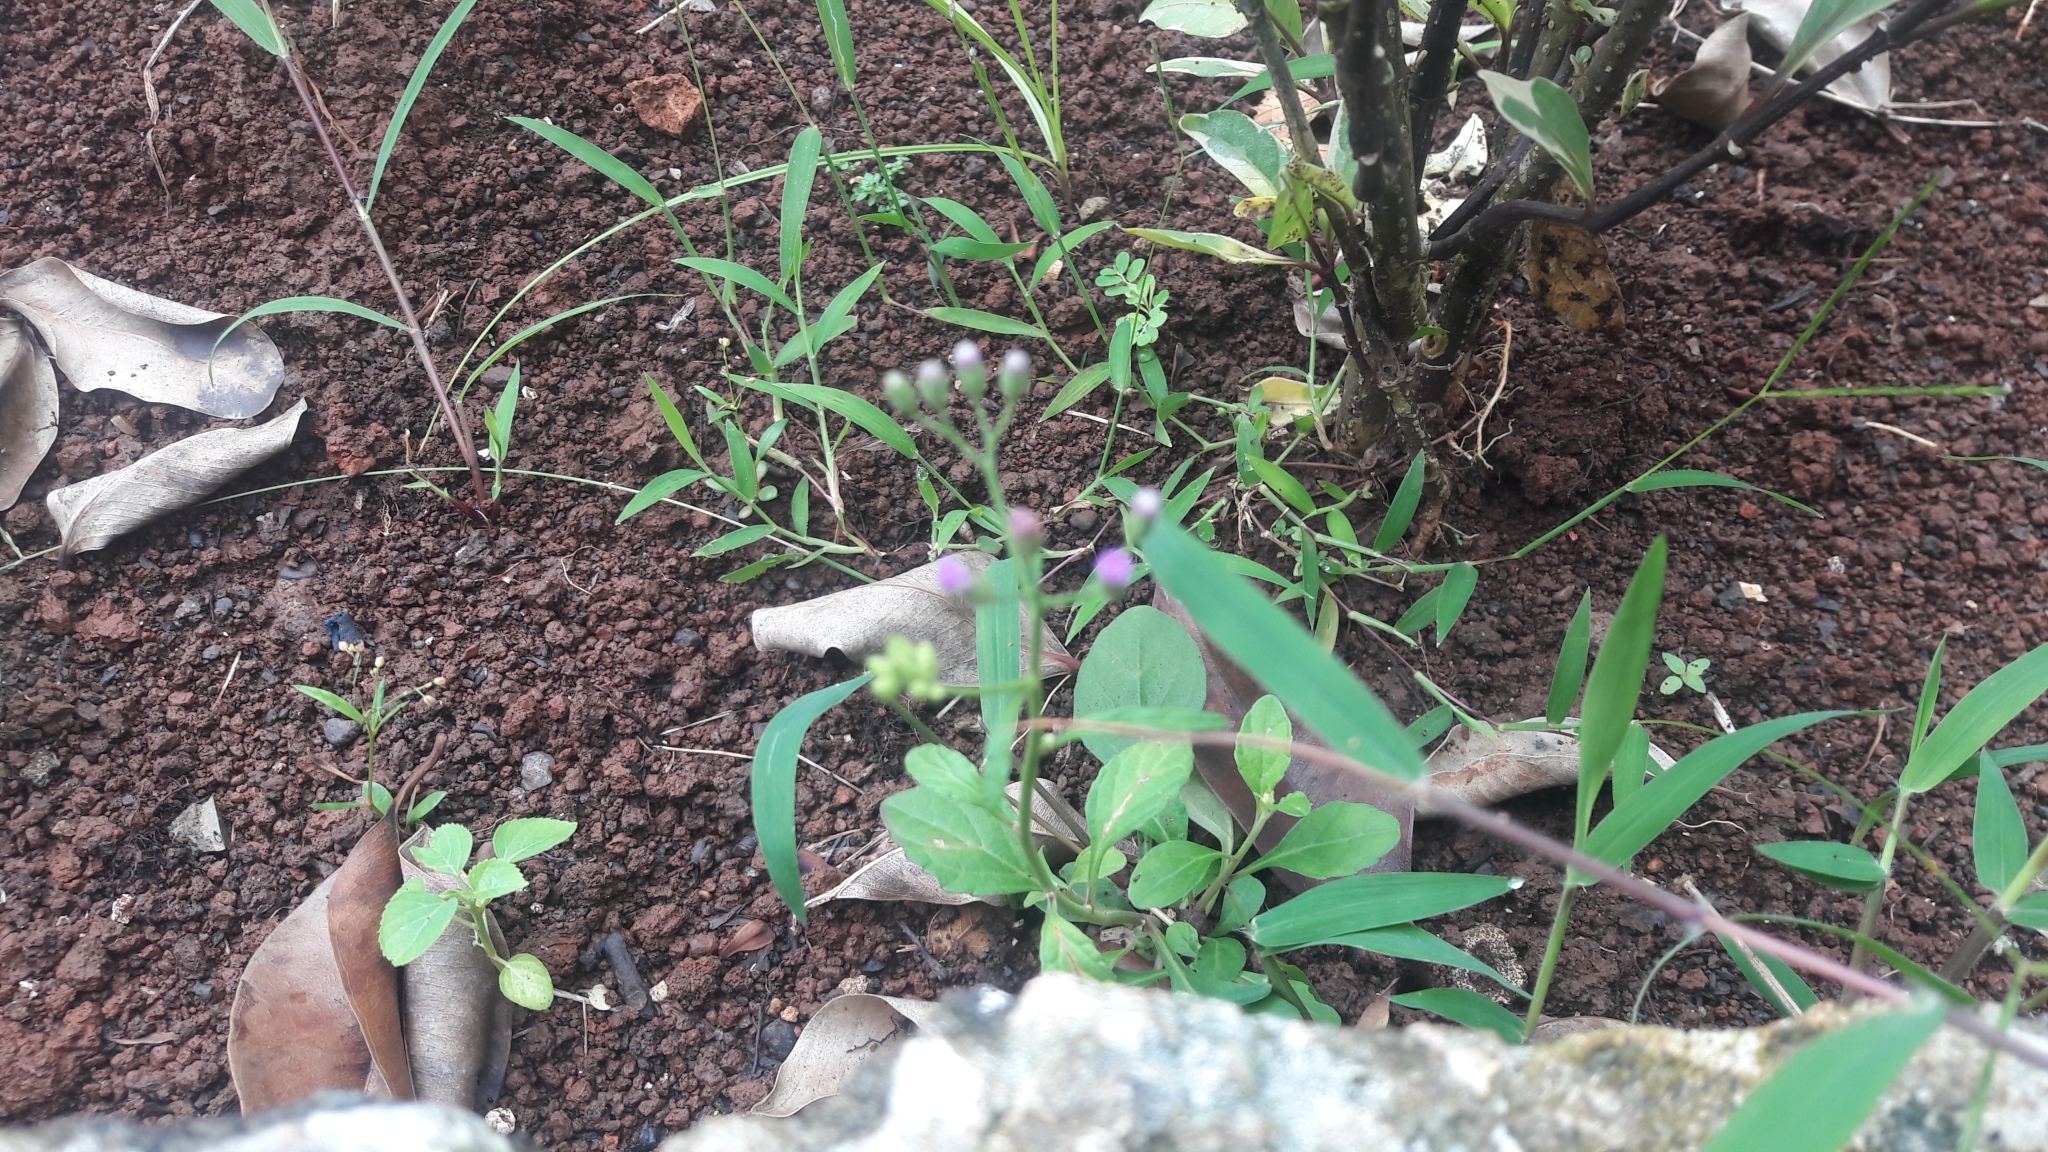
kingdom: Plantae
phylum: Tracheophyta
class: Magnoliopsida
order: Asterales
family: Asteraceae
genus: Cyanthillium
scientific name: Cyanthillium cinereum
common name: Little ironweed
